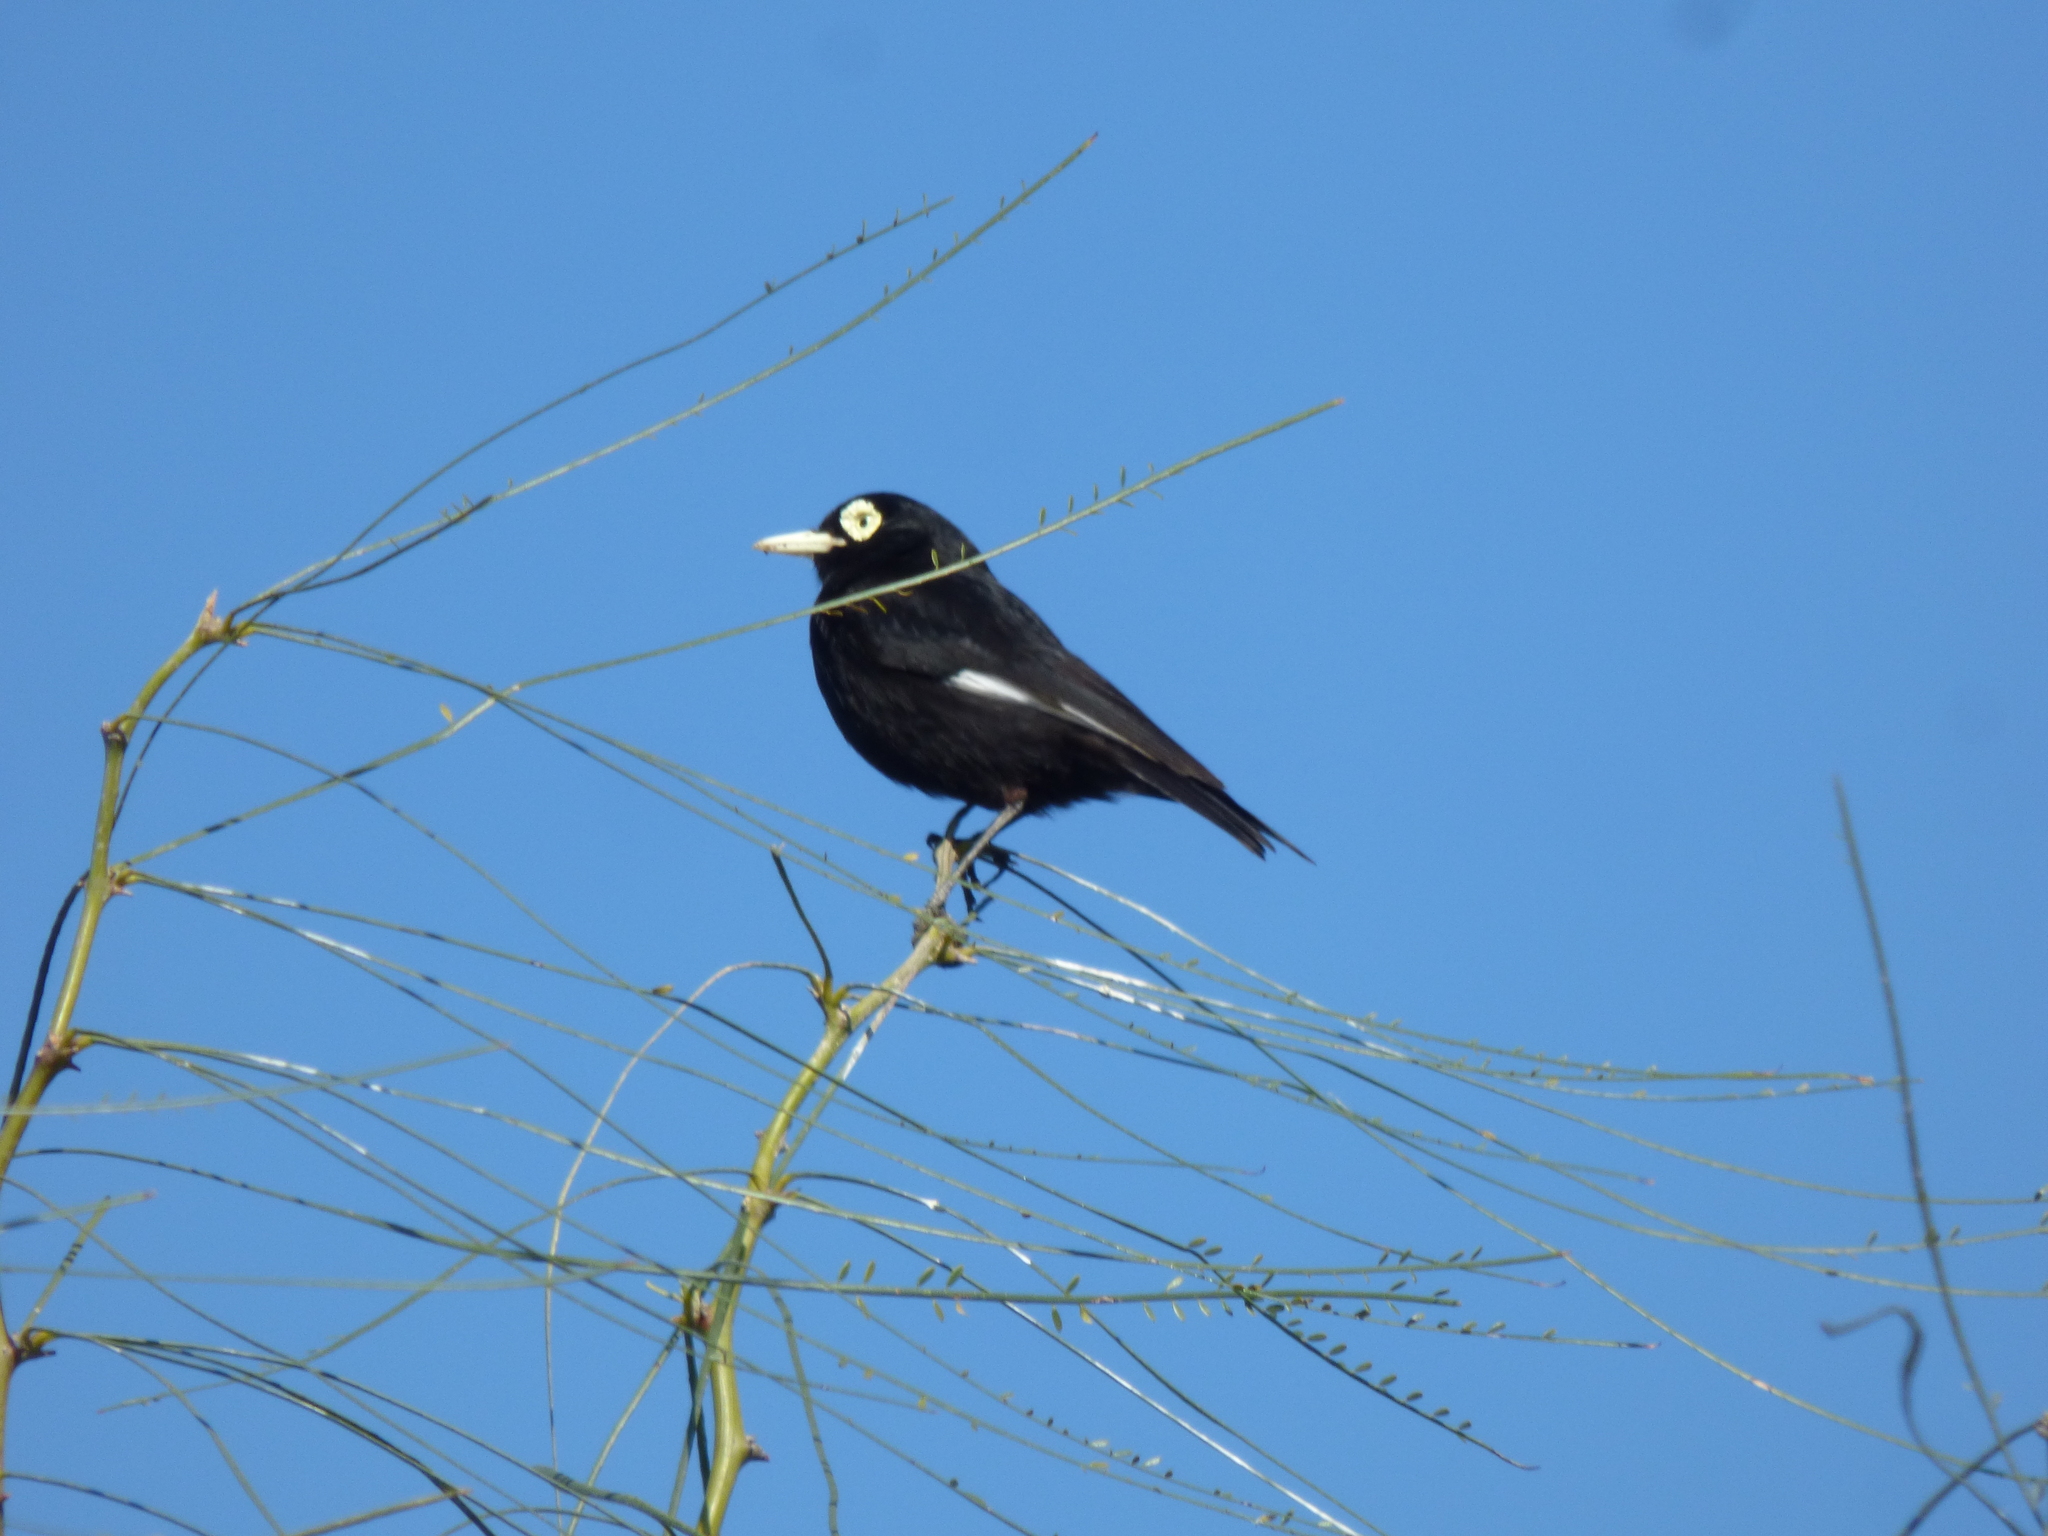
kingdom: Animalia
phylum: Chordata
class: Aves
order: Passeriformes
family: Tyrannidae
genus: Hymenops
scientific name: Hymenops perspicillatus
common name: Spectacled tyrant
